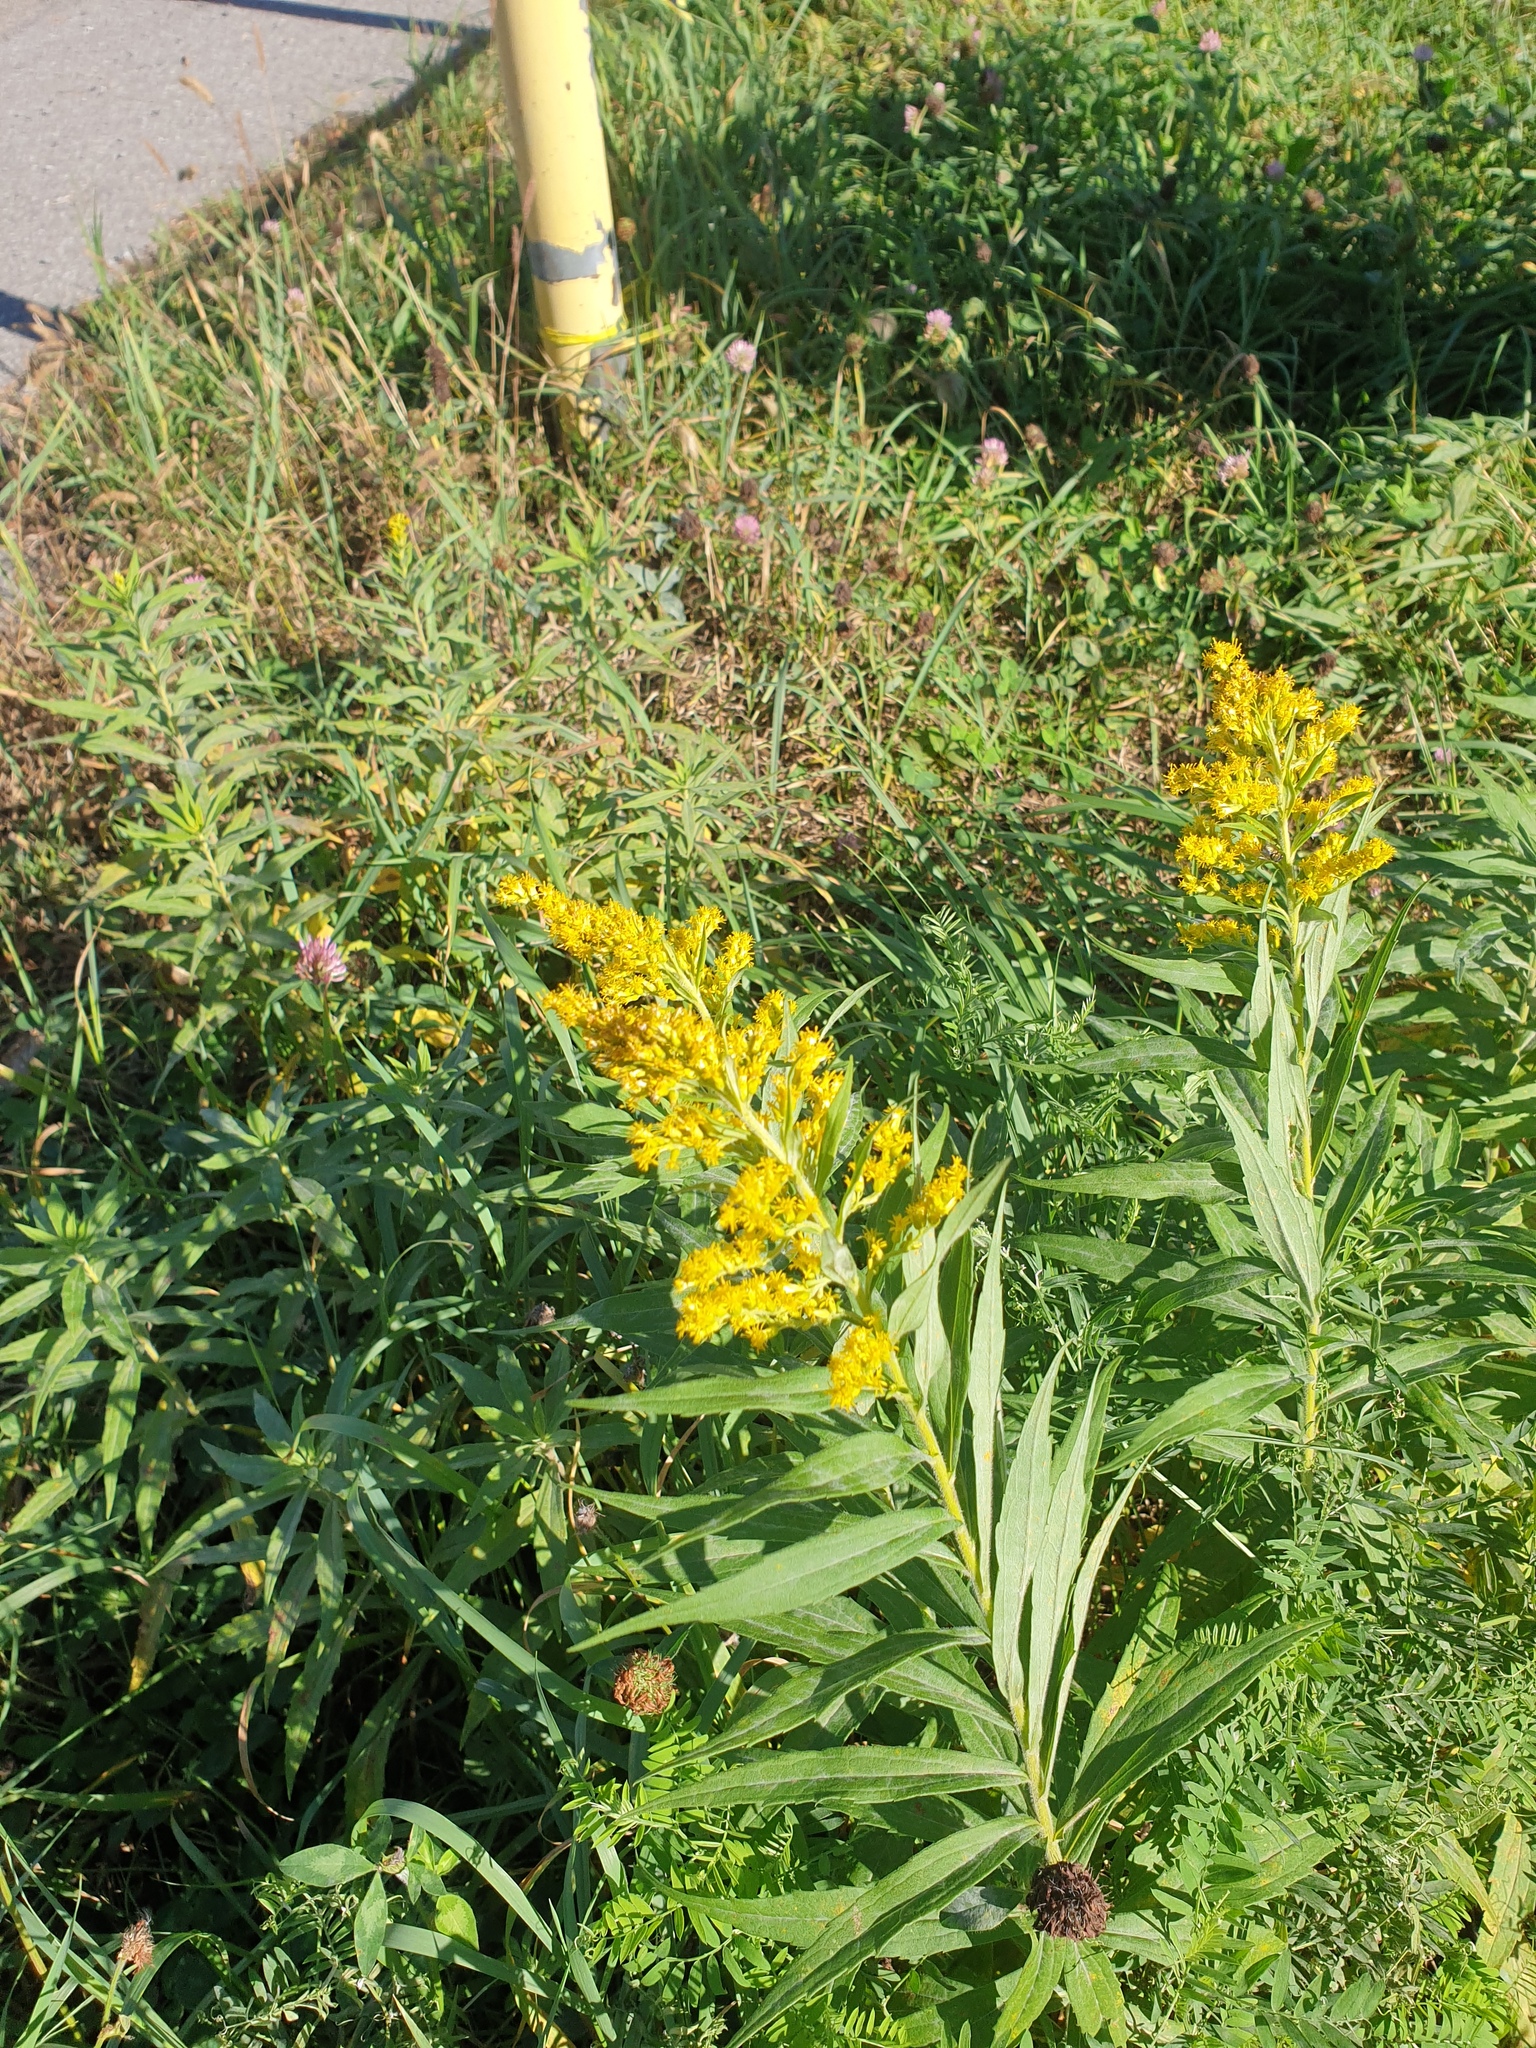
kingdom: Plantae
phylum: Tracheophyta
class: Magnoliopsida
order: Asterales
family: Asteraceae
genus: Solidago
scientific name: Solidago altissima
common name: Late goldenrod
